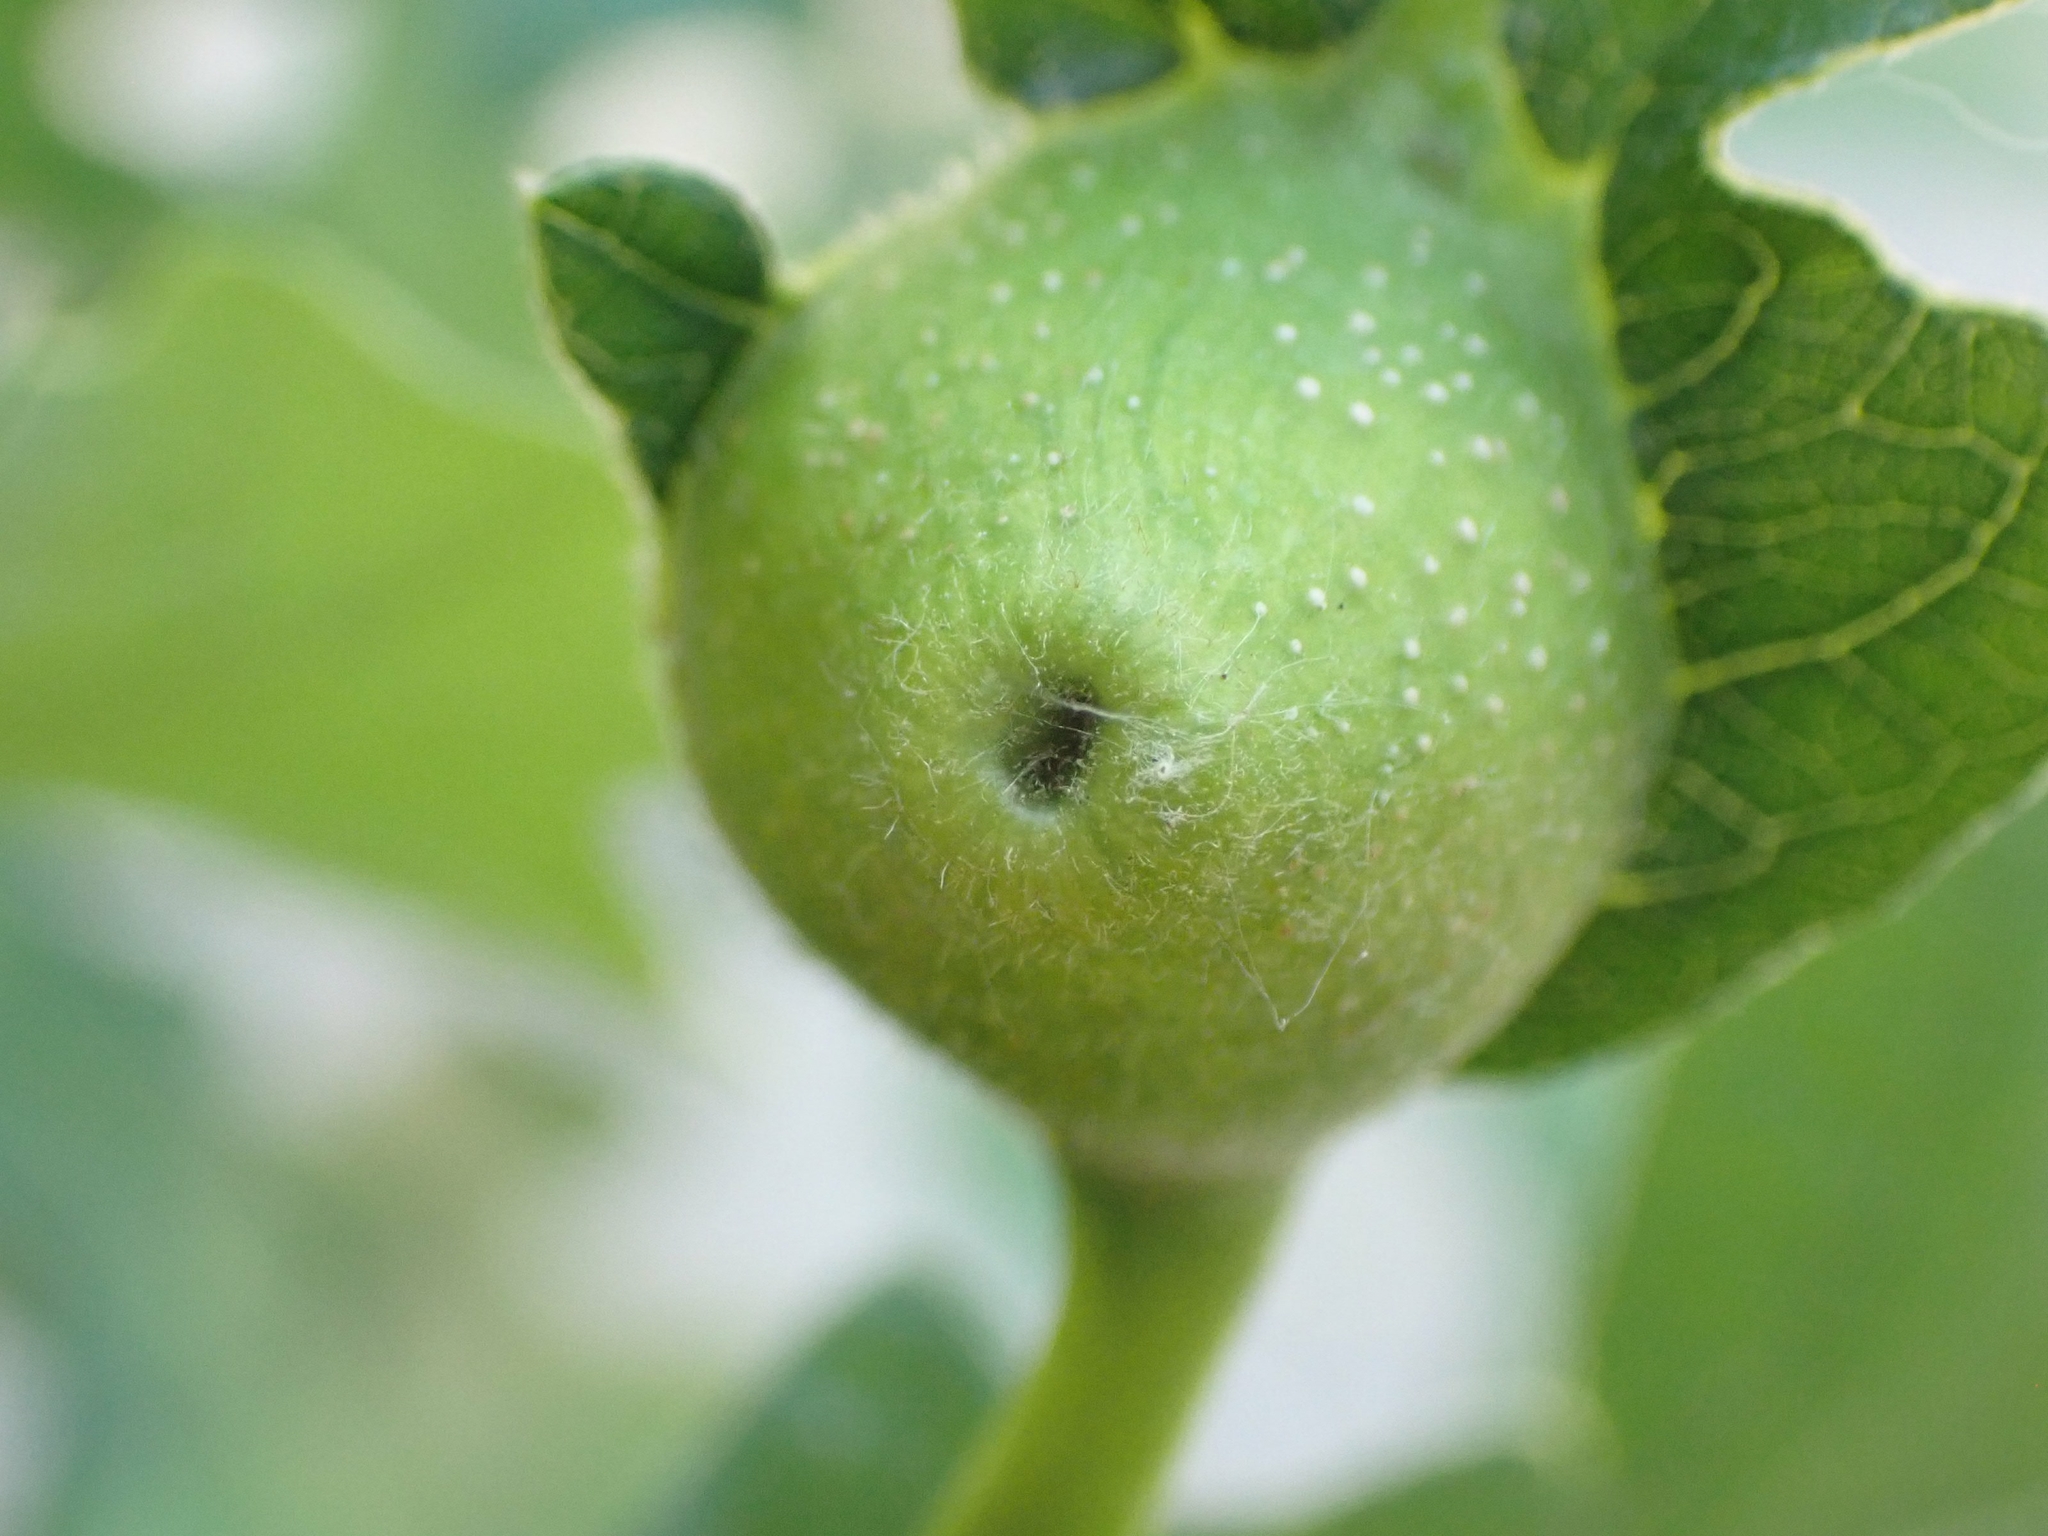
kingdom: Animalia
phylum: Arthropoda
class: Insecta
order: Hymenoptera
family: Cynipidae
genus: Andricus
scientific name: Andricus
